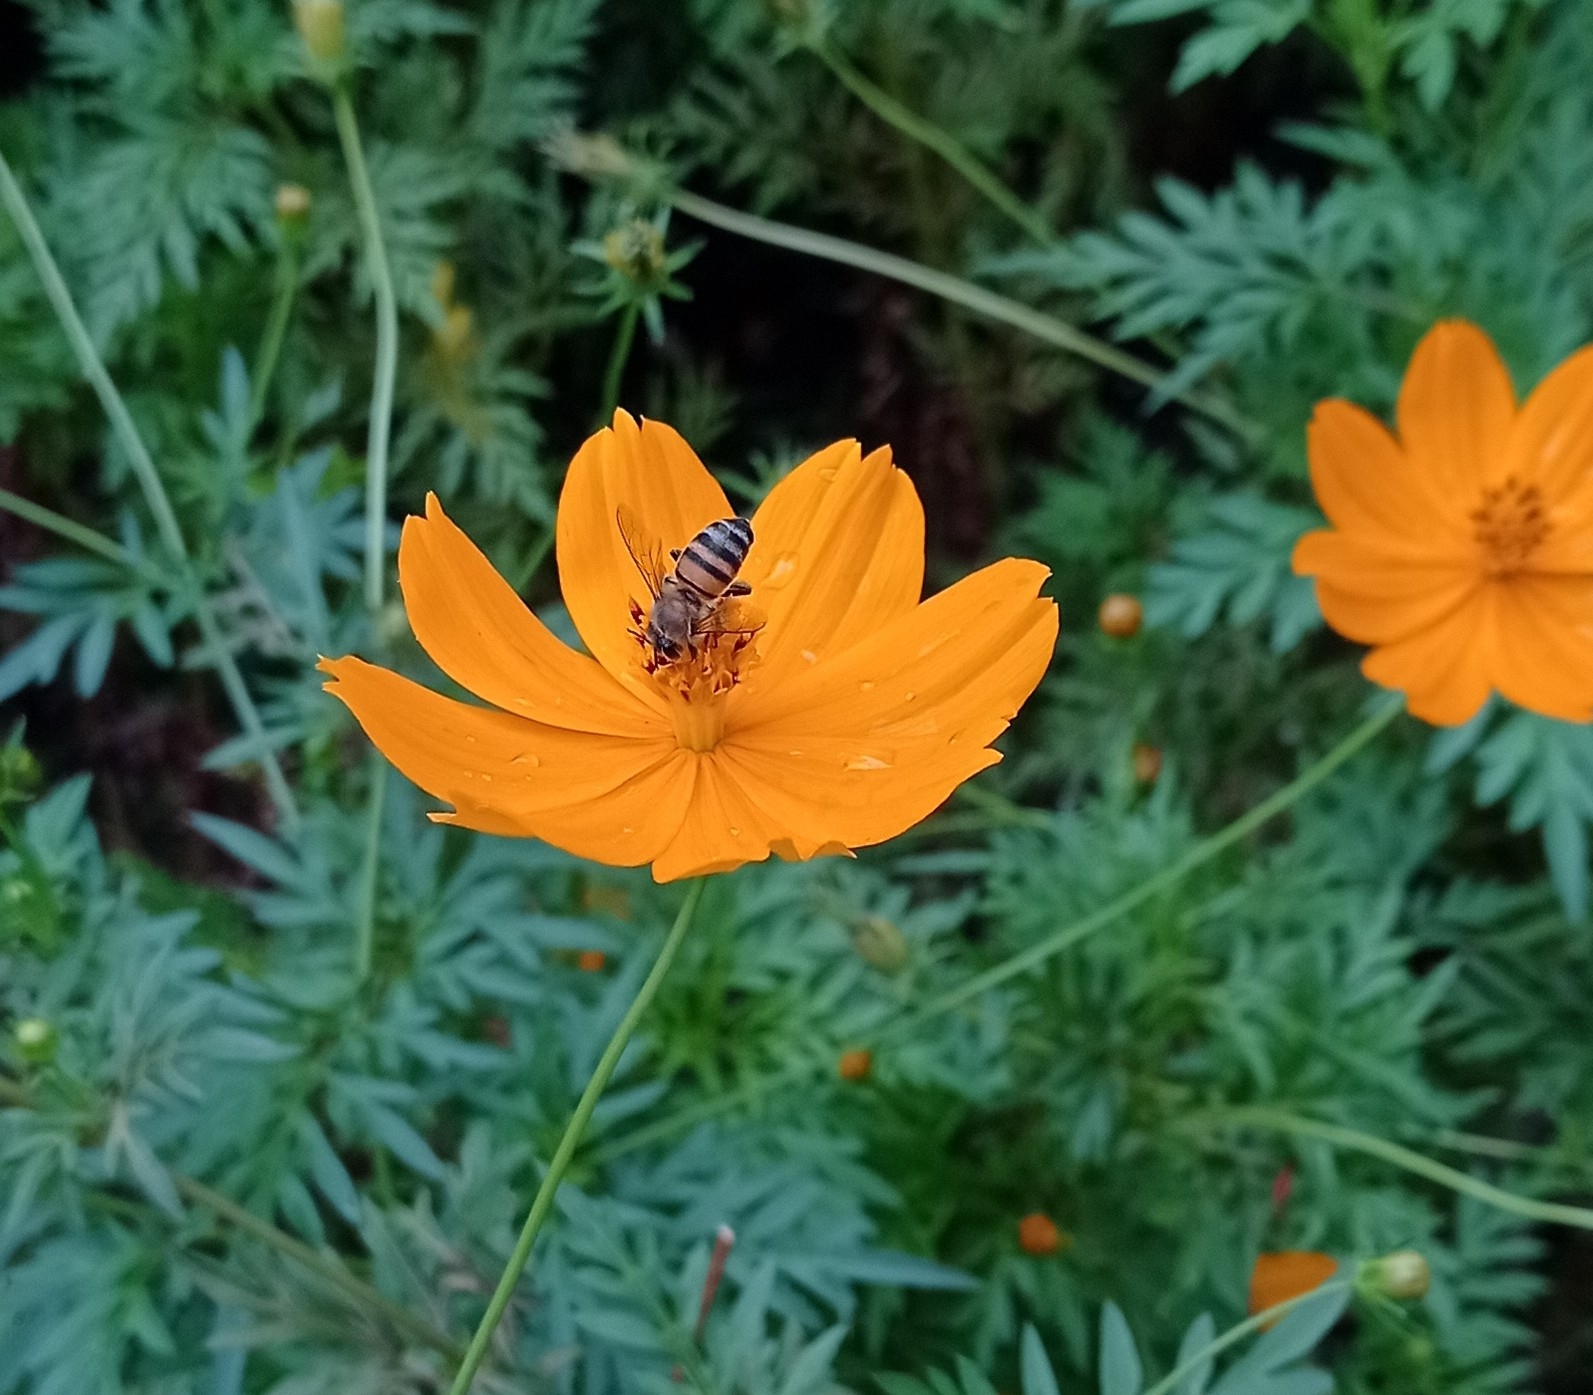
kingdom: Animalia
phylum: Arthropoda
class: Insecta
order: Hymenoptera
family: Apidae
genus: Apis
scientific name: Apis mellifera
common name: Honey bee
